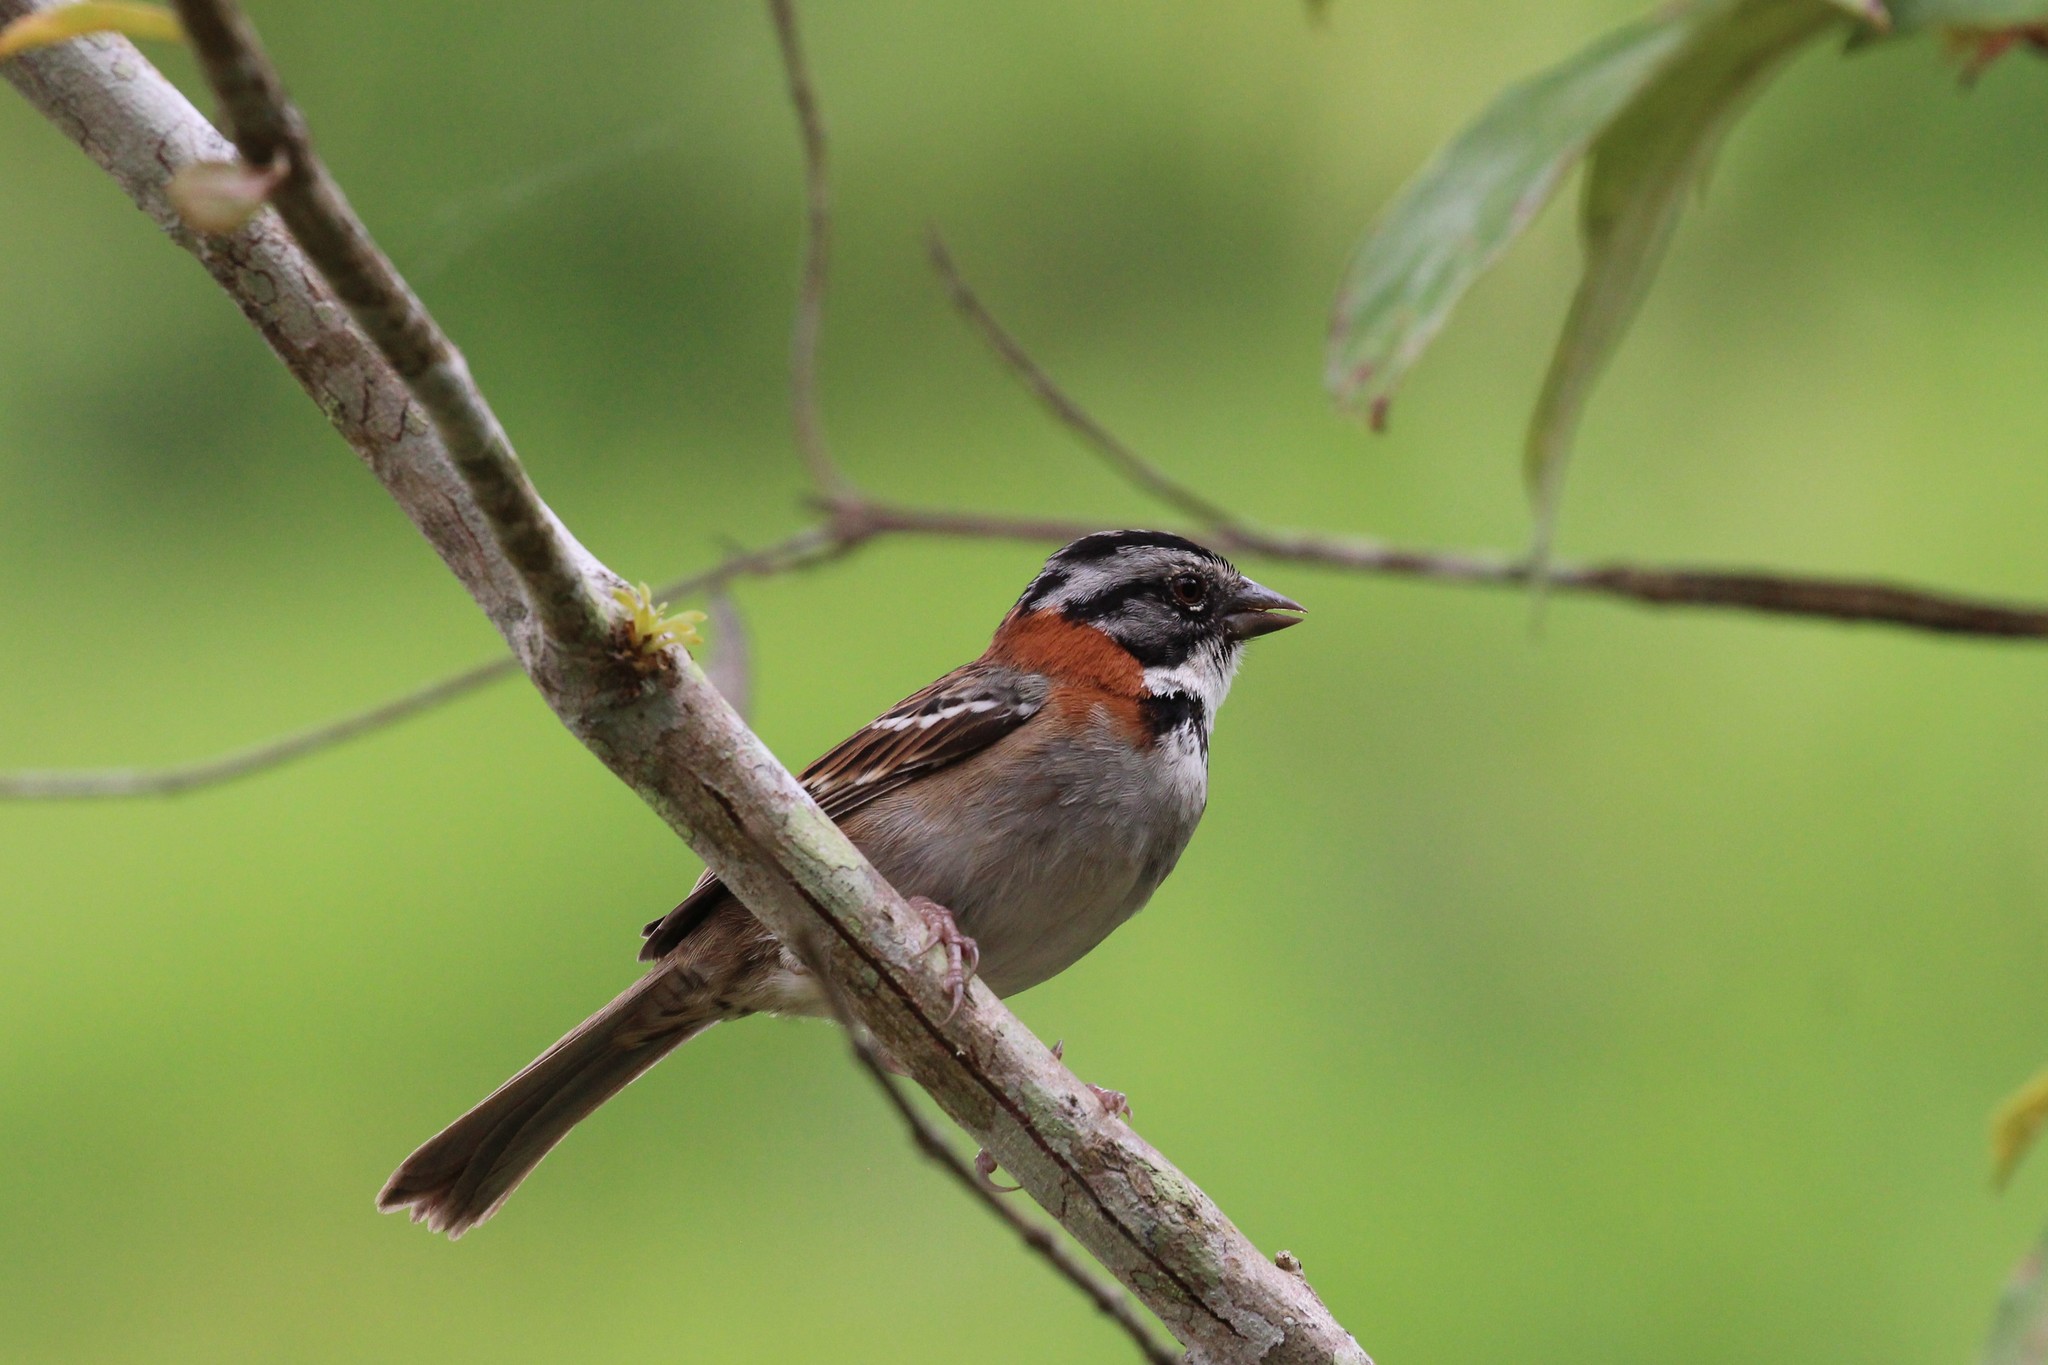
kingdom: Animalia
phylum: Chordata
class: Aves
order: Passeriformes
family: Passerellidae
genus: Zonotrichia
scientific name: Zonotrichia capensis
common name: Rufous-collared sparrow
